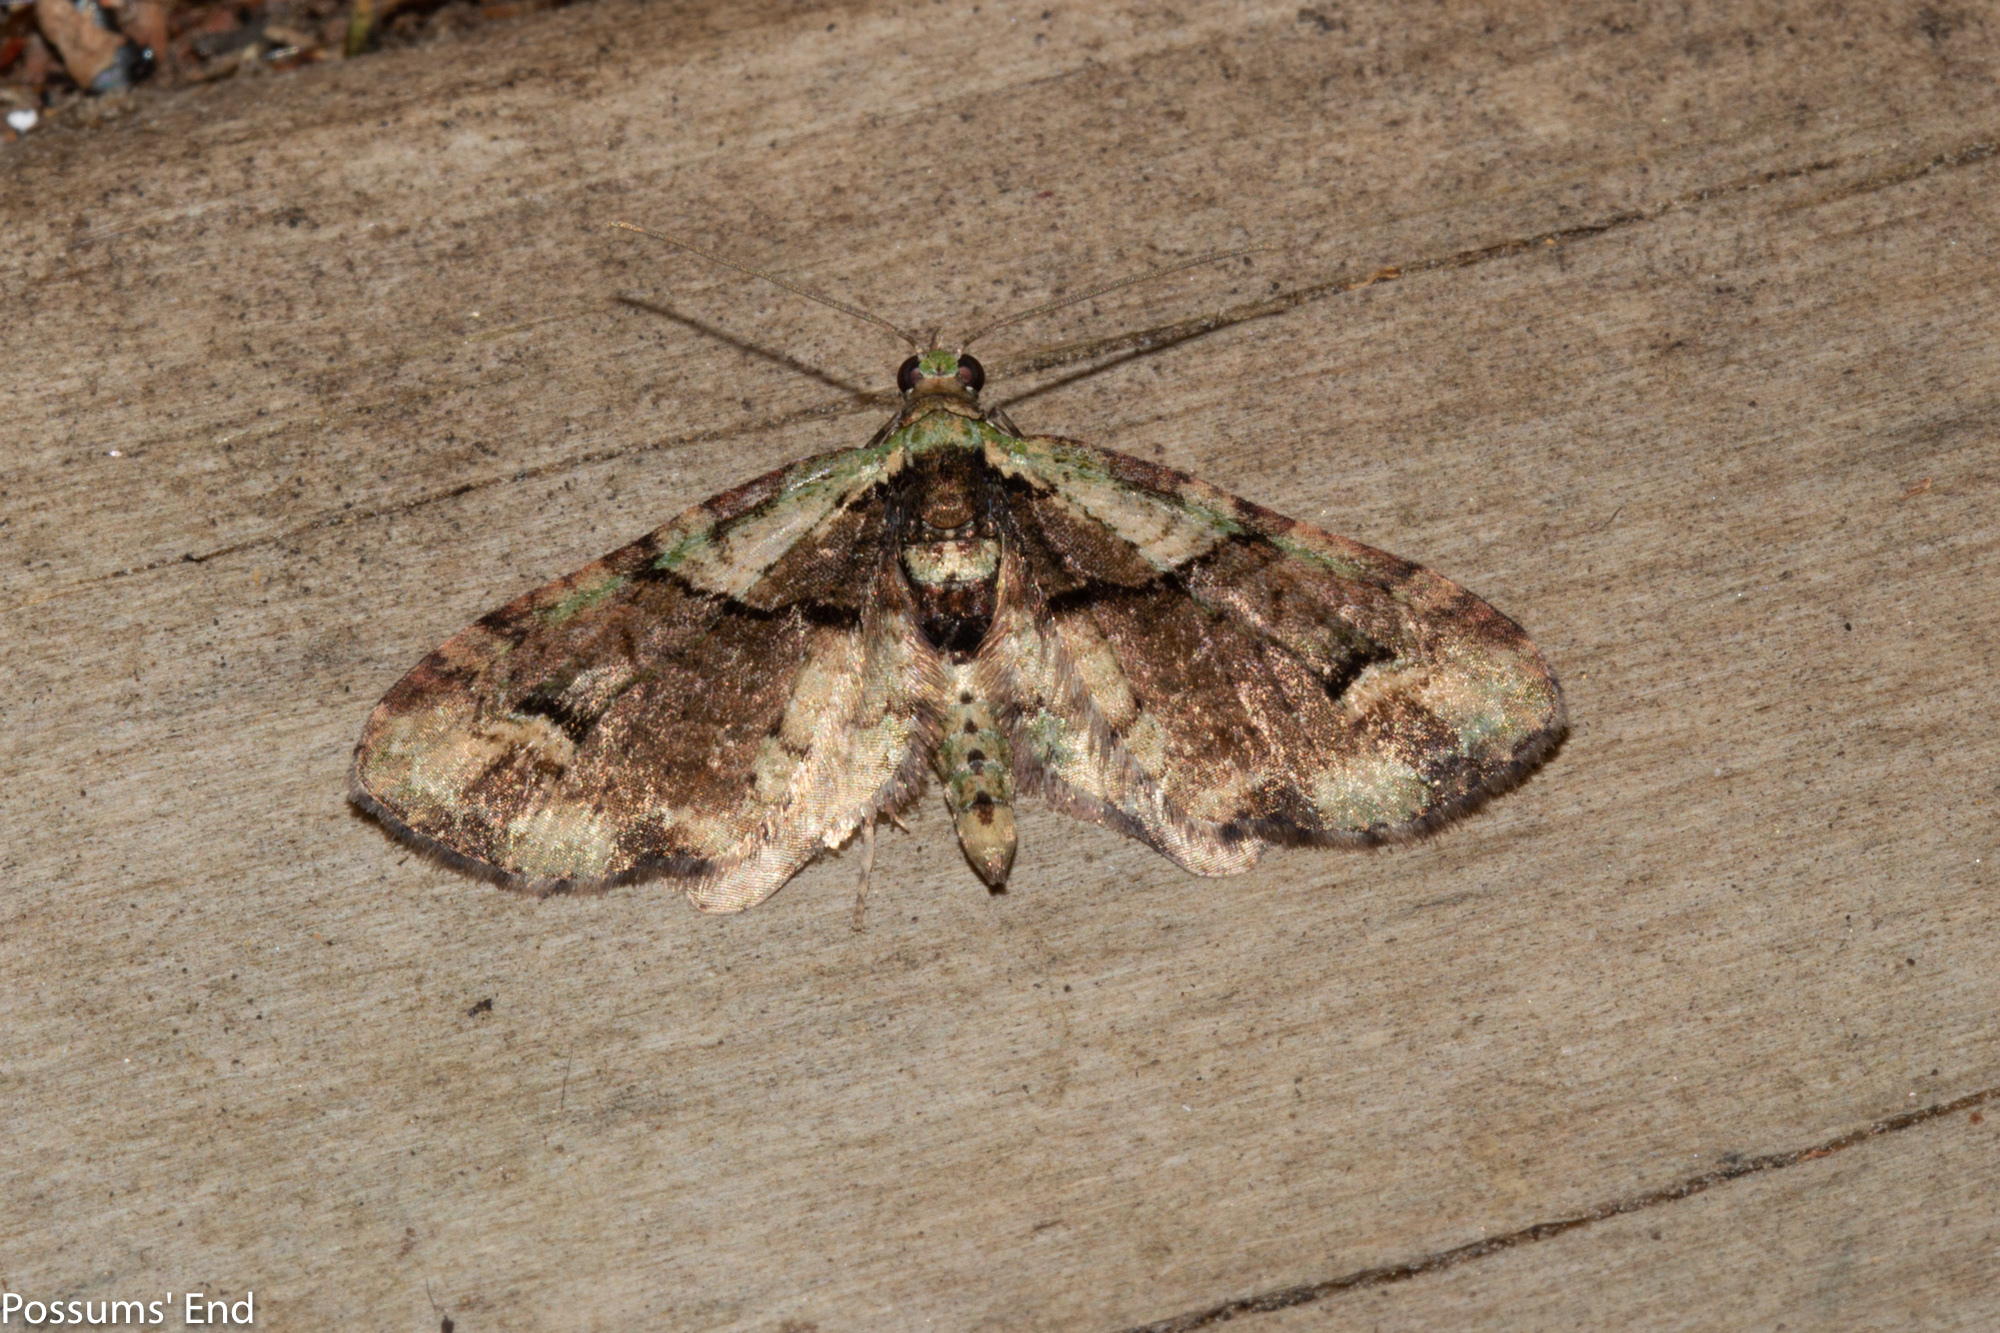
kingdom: Animalia
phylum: Arthropoda
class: Insecta
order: Lepidoptera
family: Geometridae
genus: Idaea
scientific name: Idaea mutanda
